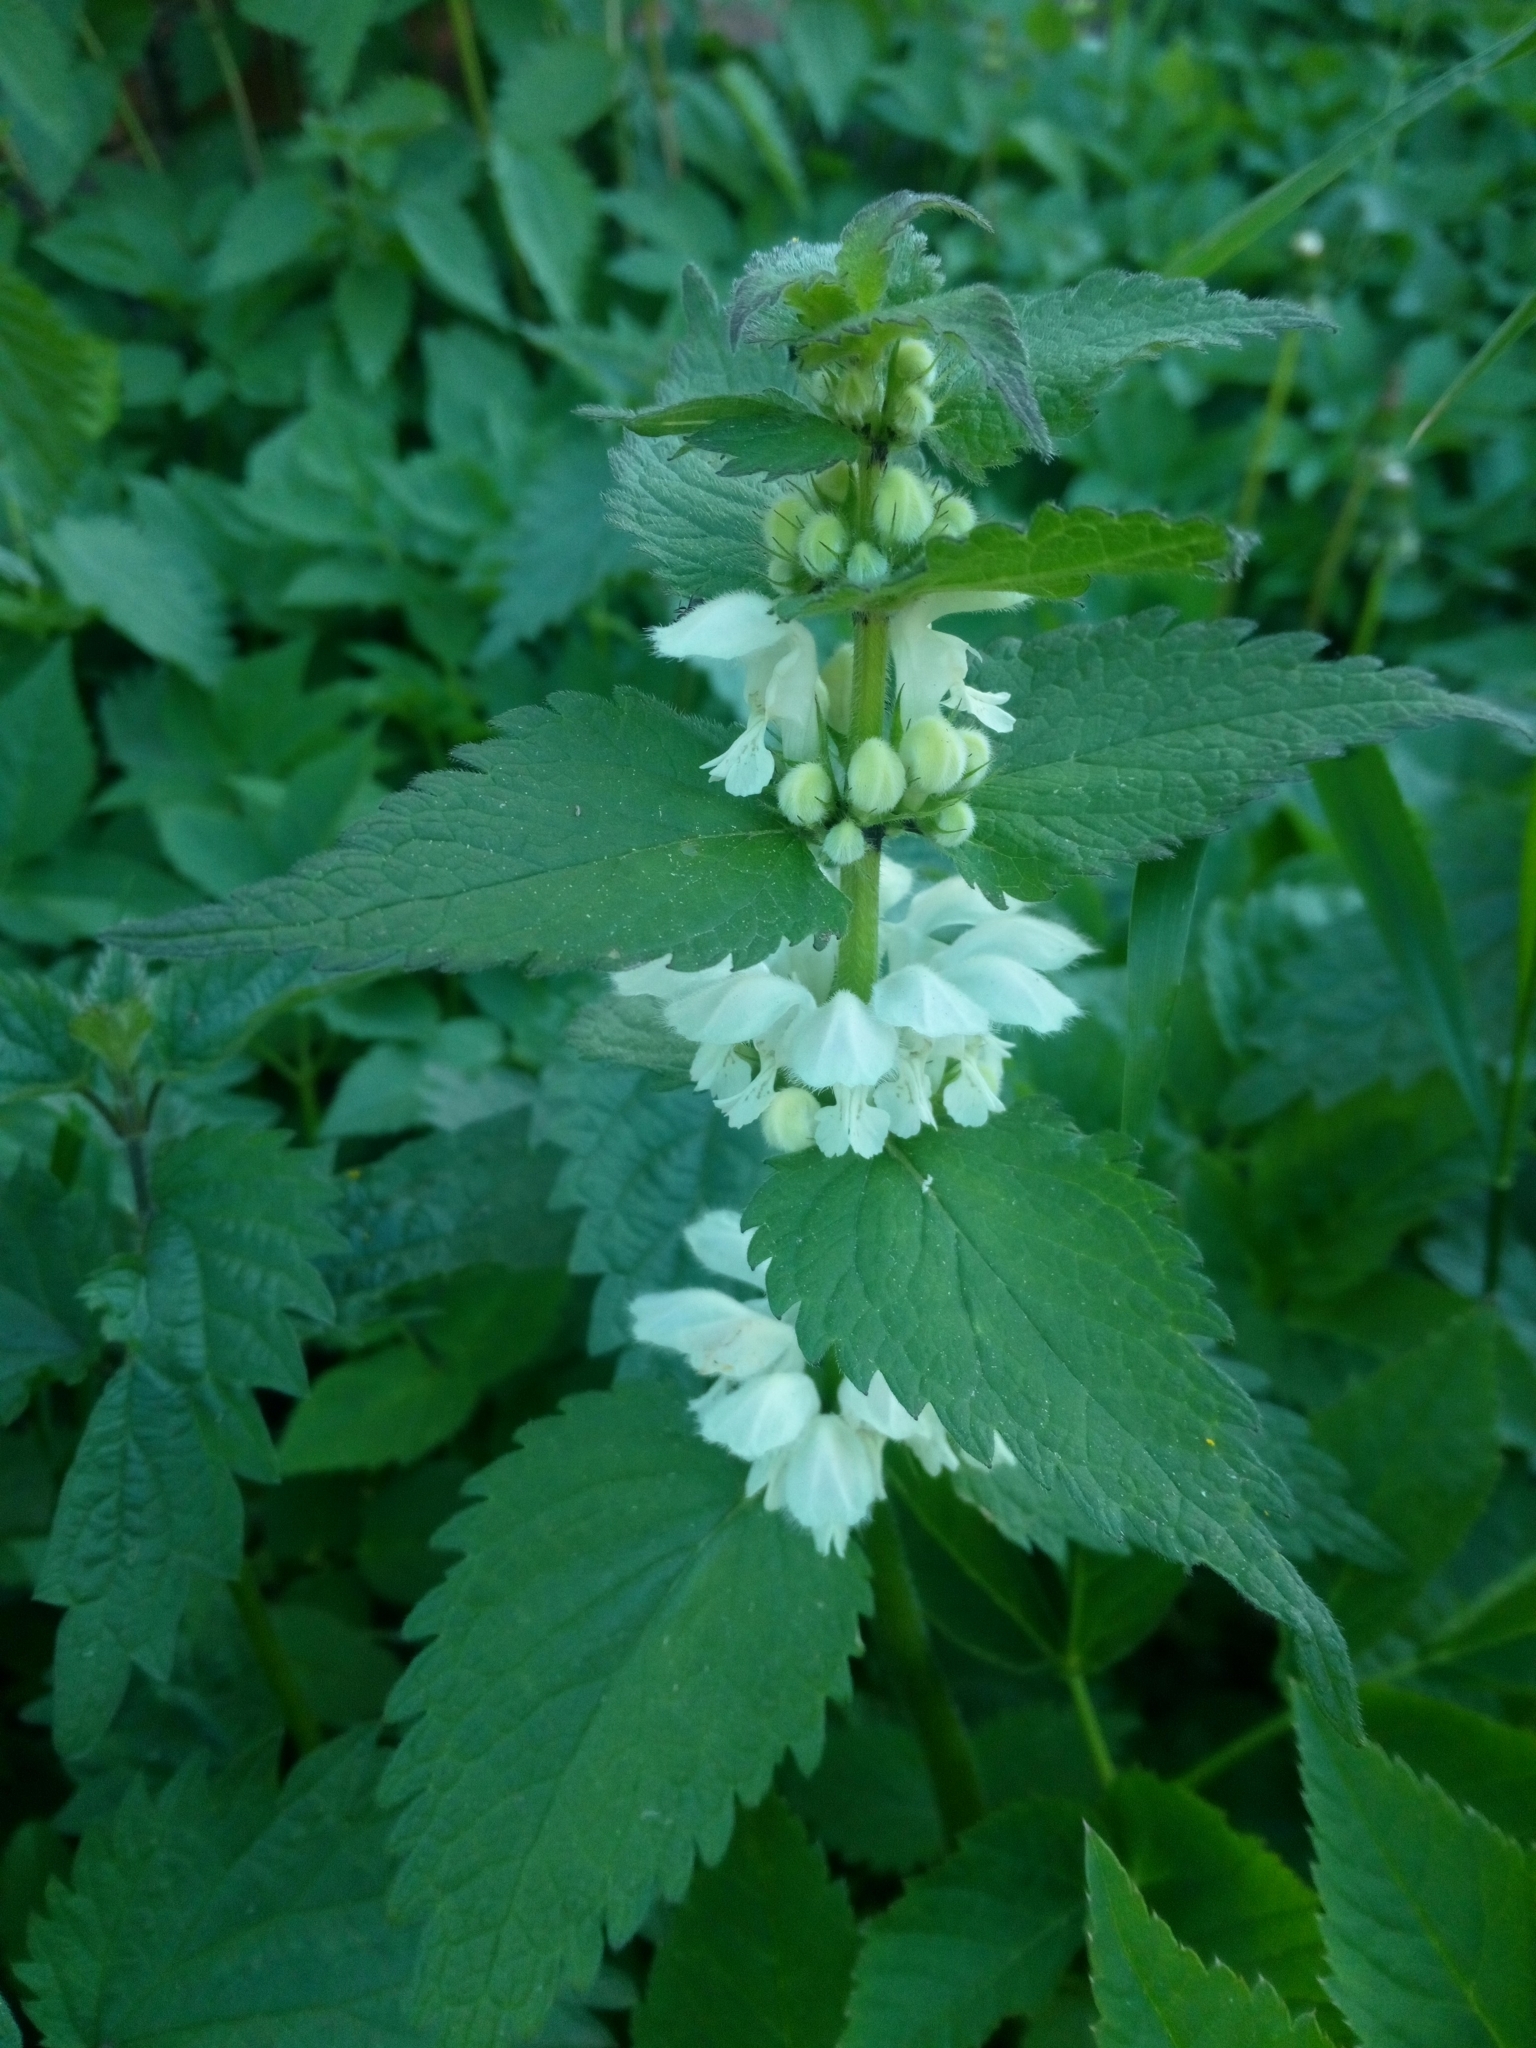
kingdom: Plantae
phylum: Tracheophyta
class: Magnoliopsida
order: Lamiales
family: Lamiaceae
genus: Lamium
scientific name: Lamium album
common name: White dead-nettle
